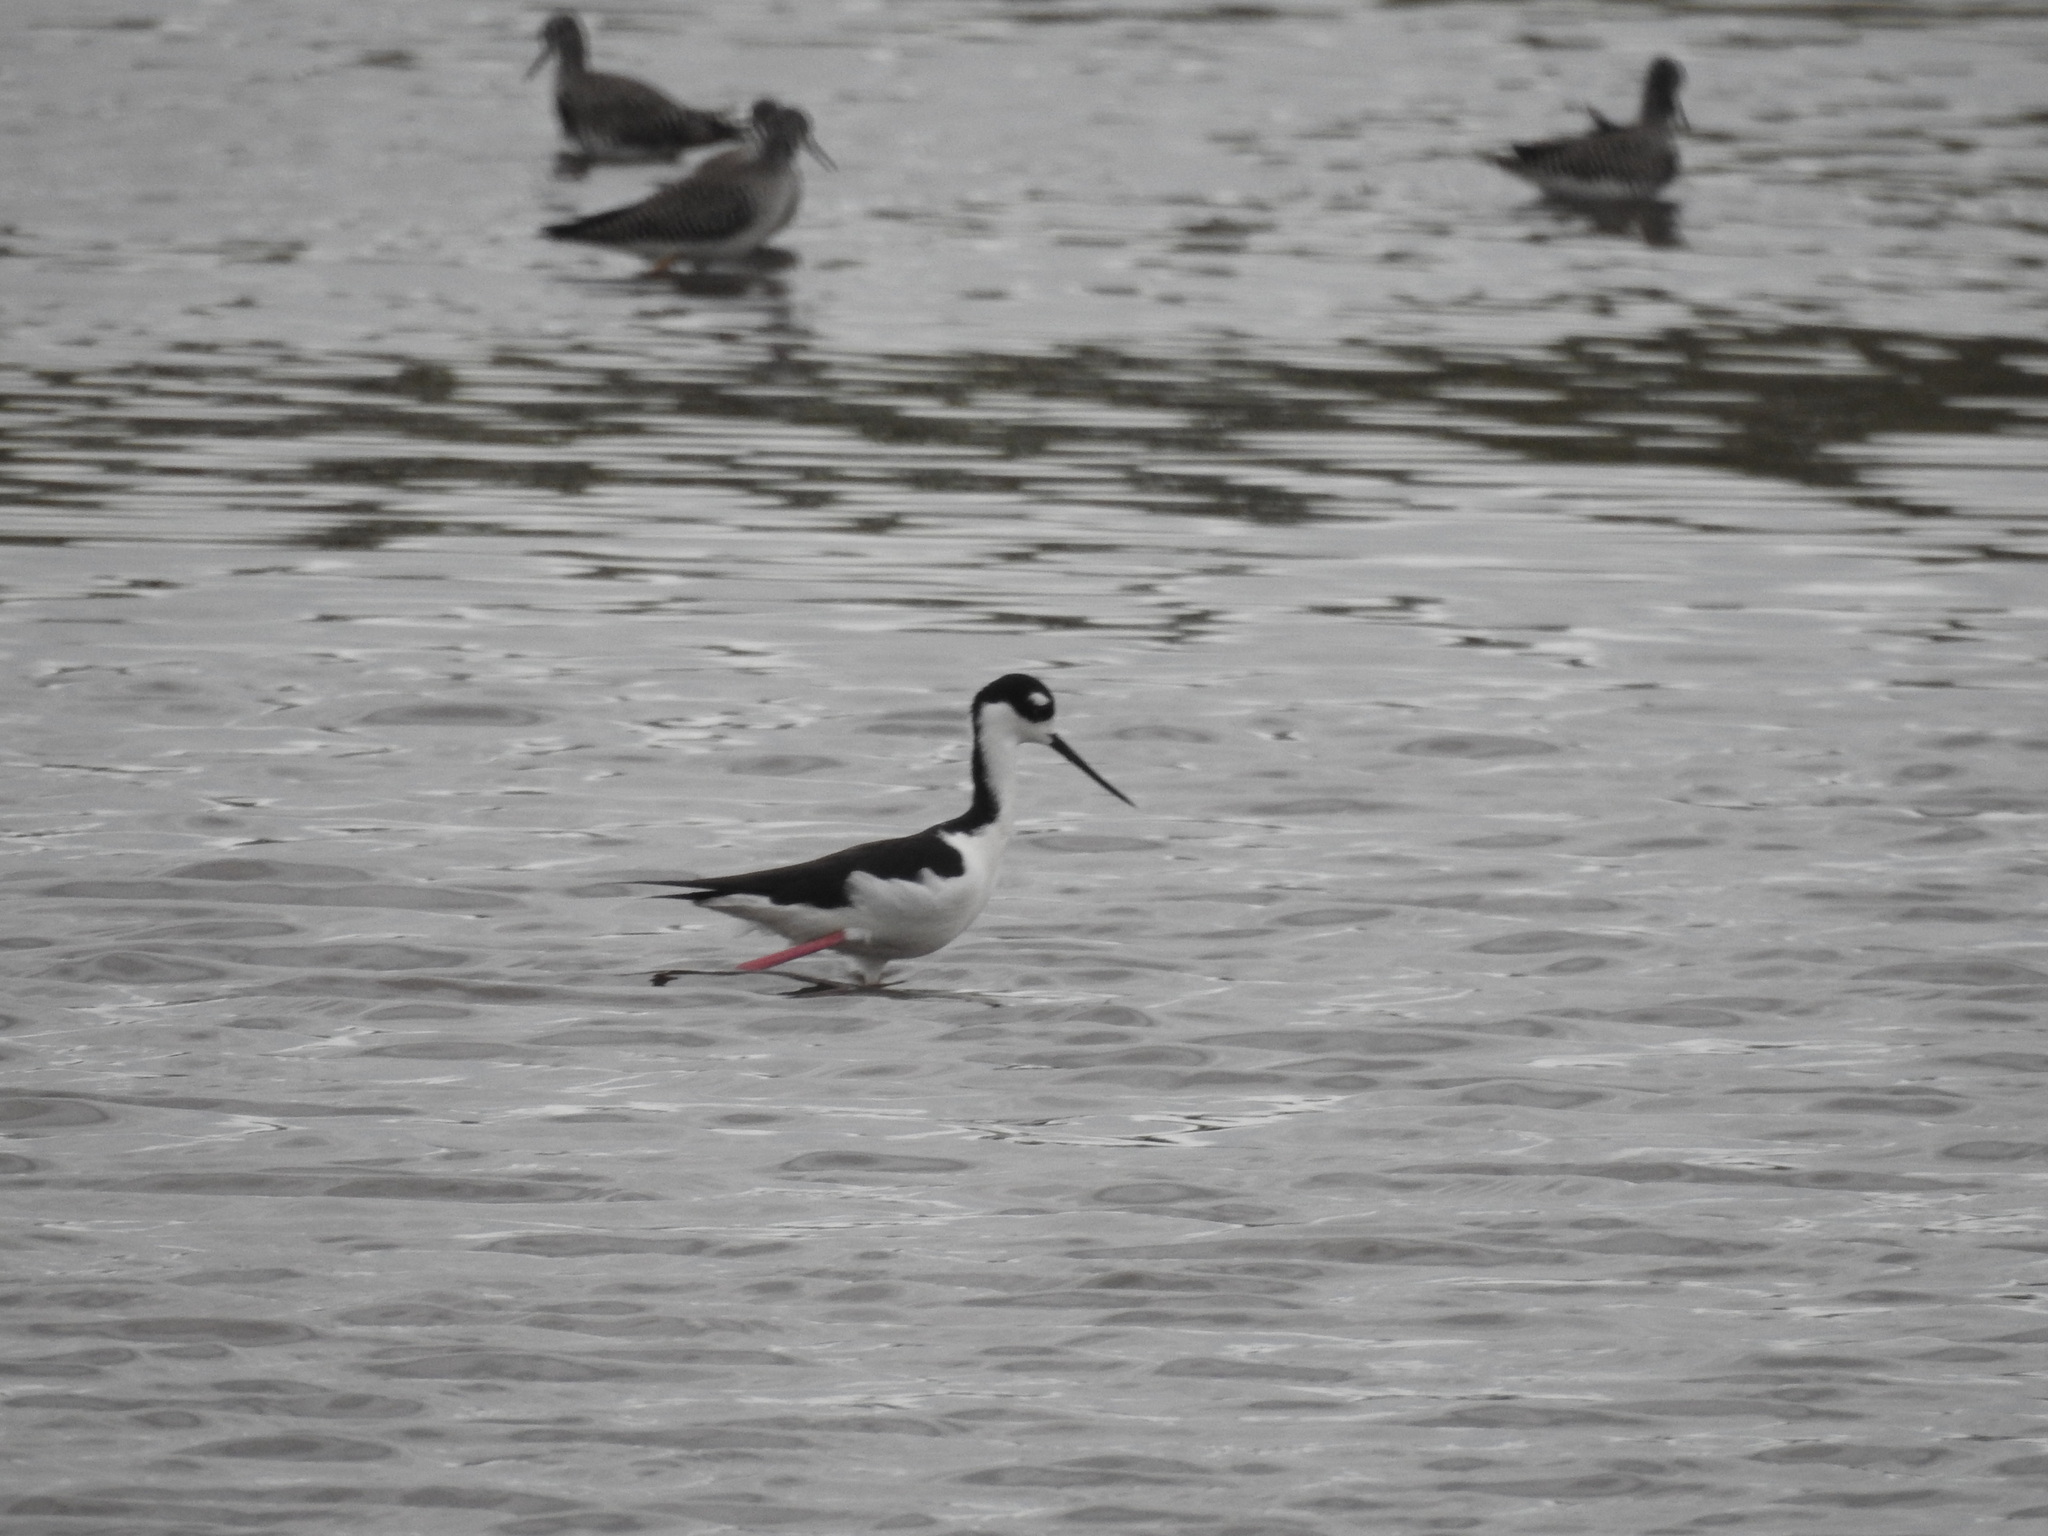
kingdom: Animalia
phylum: Chordata
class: Aves
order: Charadriiformes
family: Recurvirostridae
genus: Himantopus
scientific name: Himantopus mexicanus
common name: Black-necked stilt
